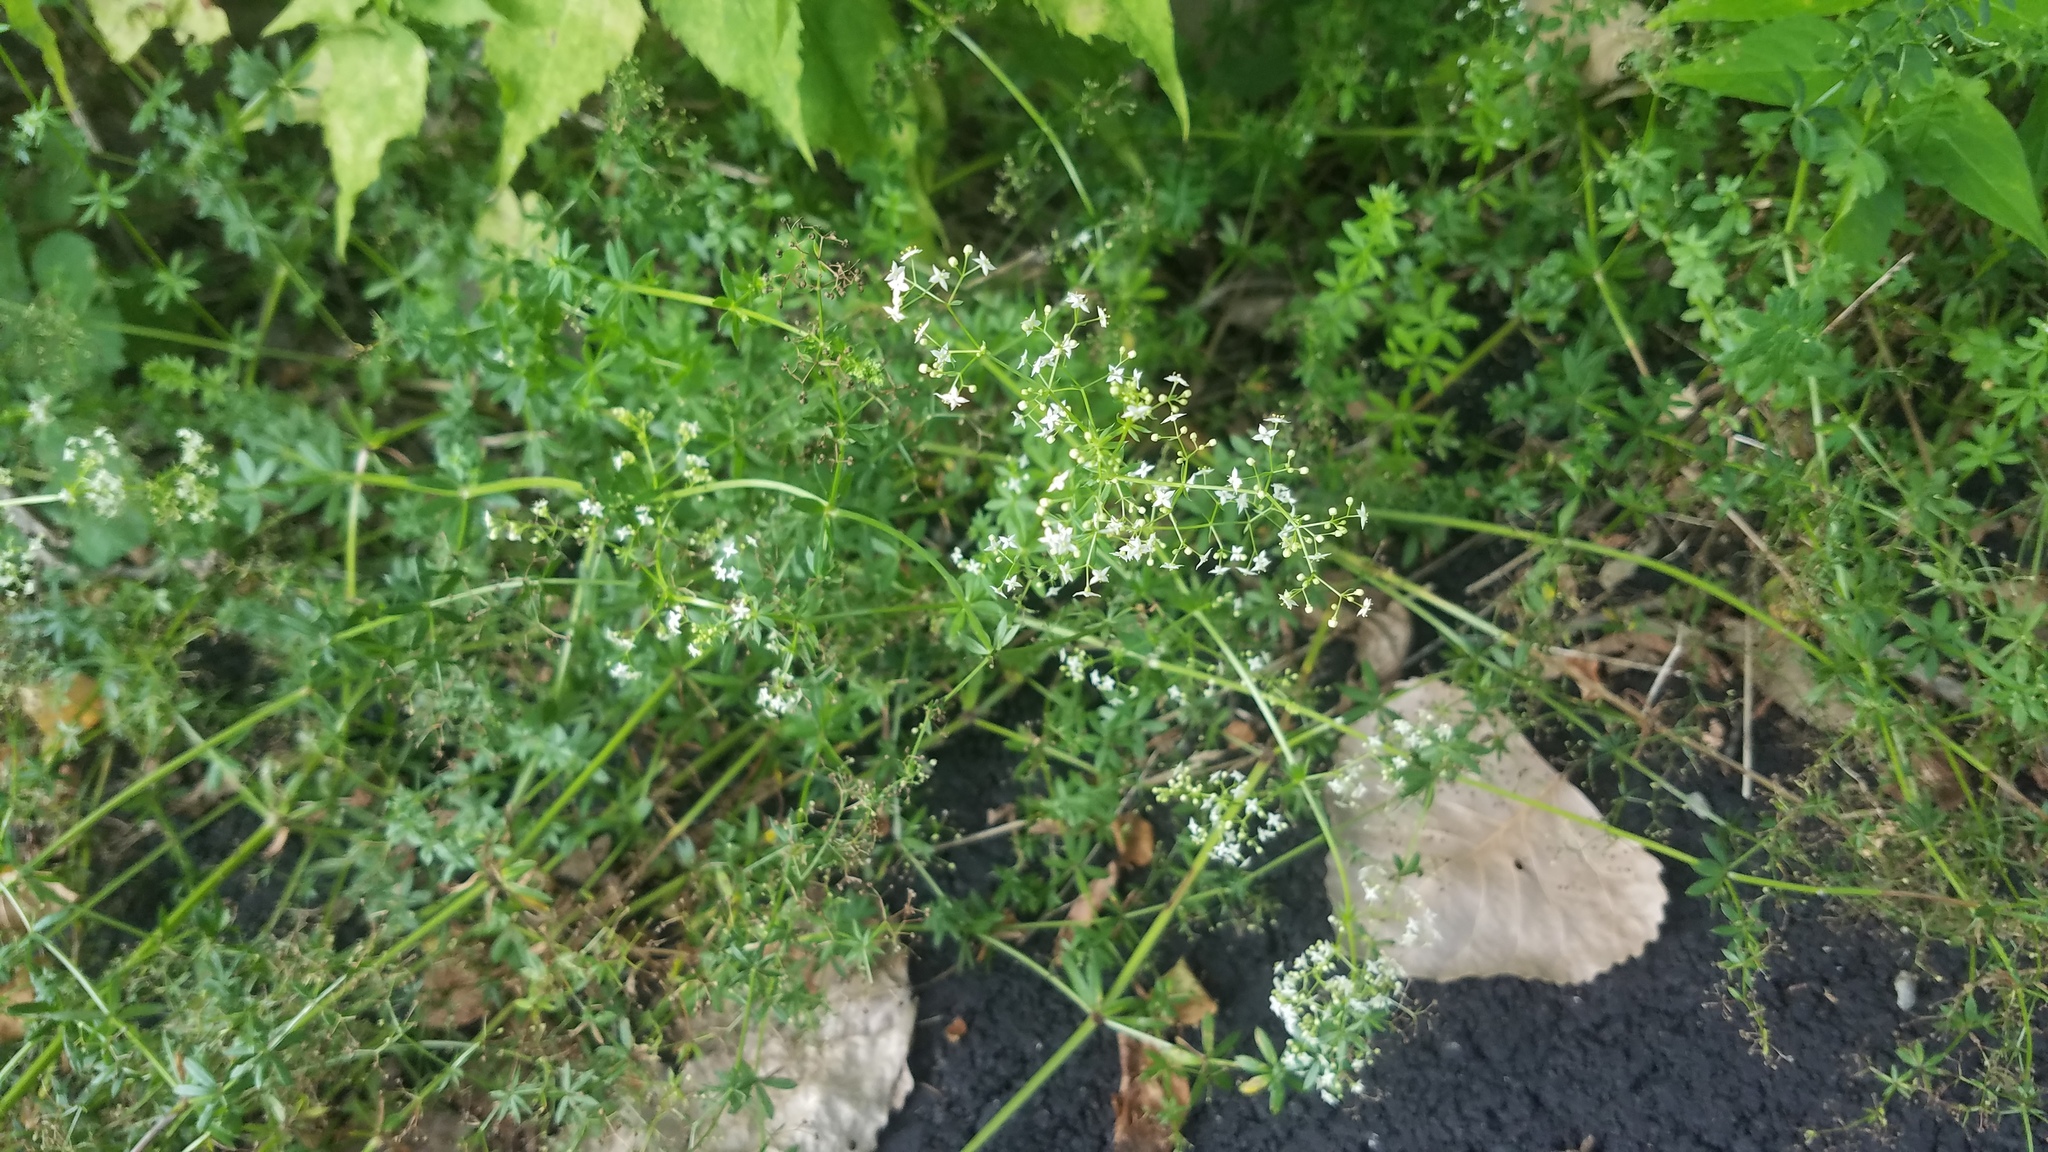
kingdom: Plantae
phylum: Tracheophyta
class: Magnoliopsida
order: Gentianales
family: Rubiaceae
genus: Galium
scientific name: Galium mollugo
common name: Hedge bedstraw
